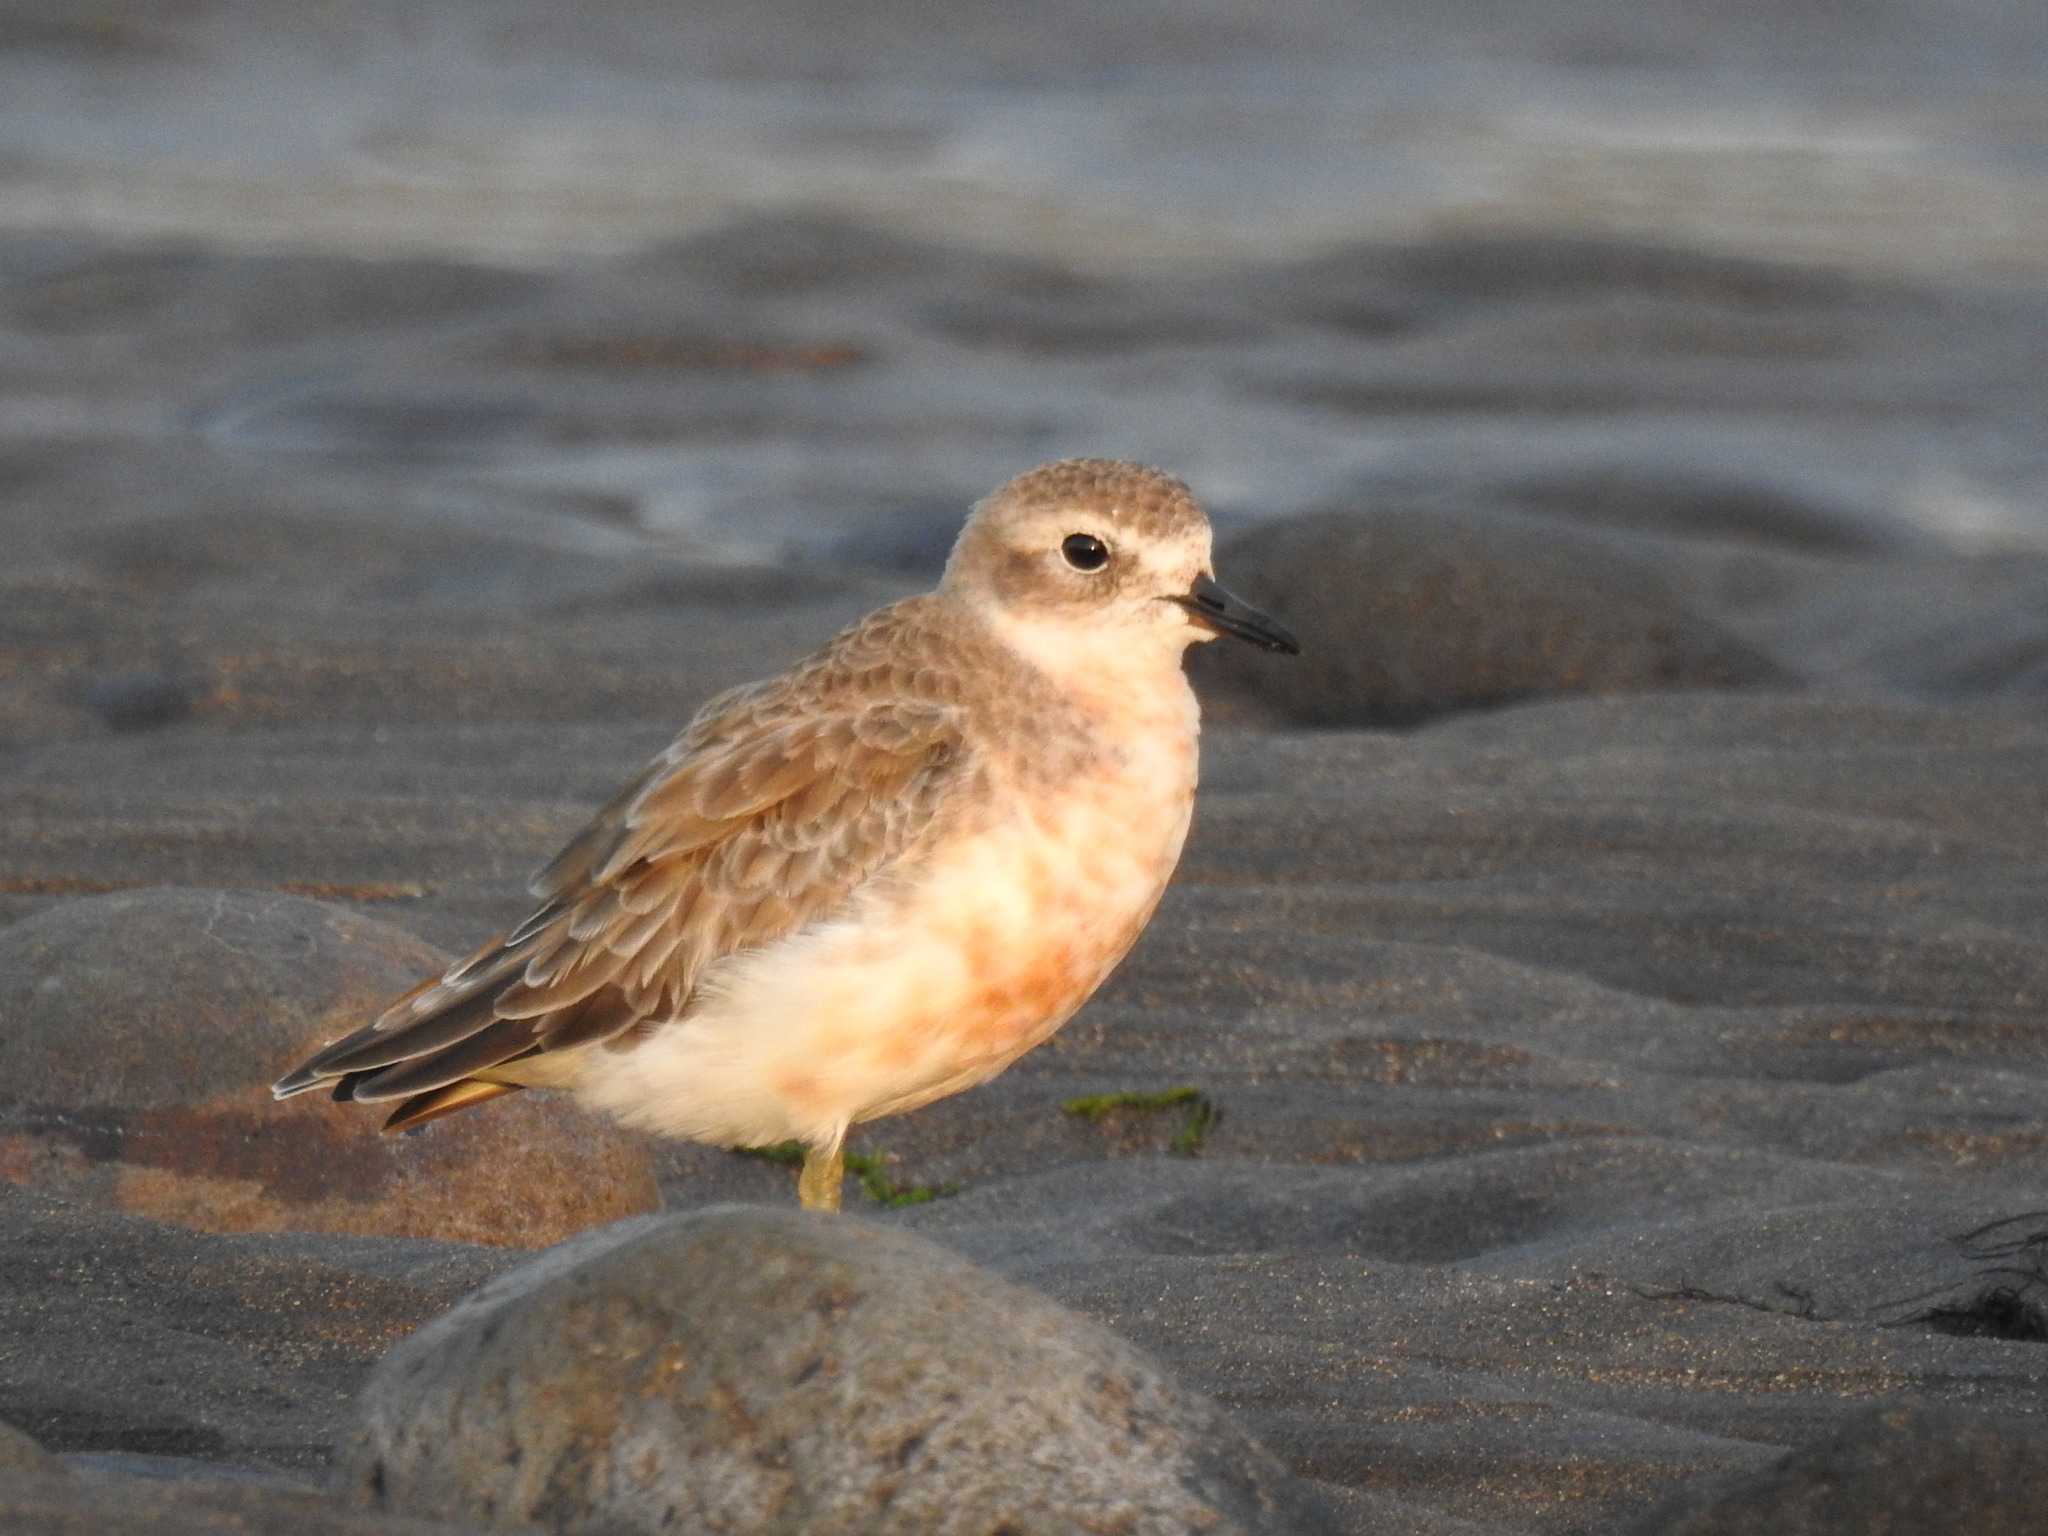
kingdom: Animalia
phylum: Chordata
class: Aves
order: Charadriiformes
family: Charadriidae
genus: Anarhynchus
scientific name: Anarhynchus
